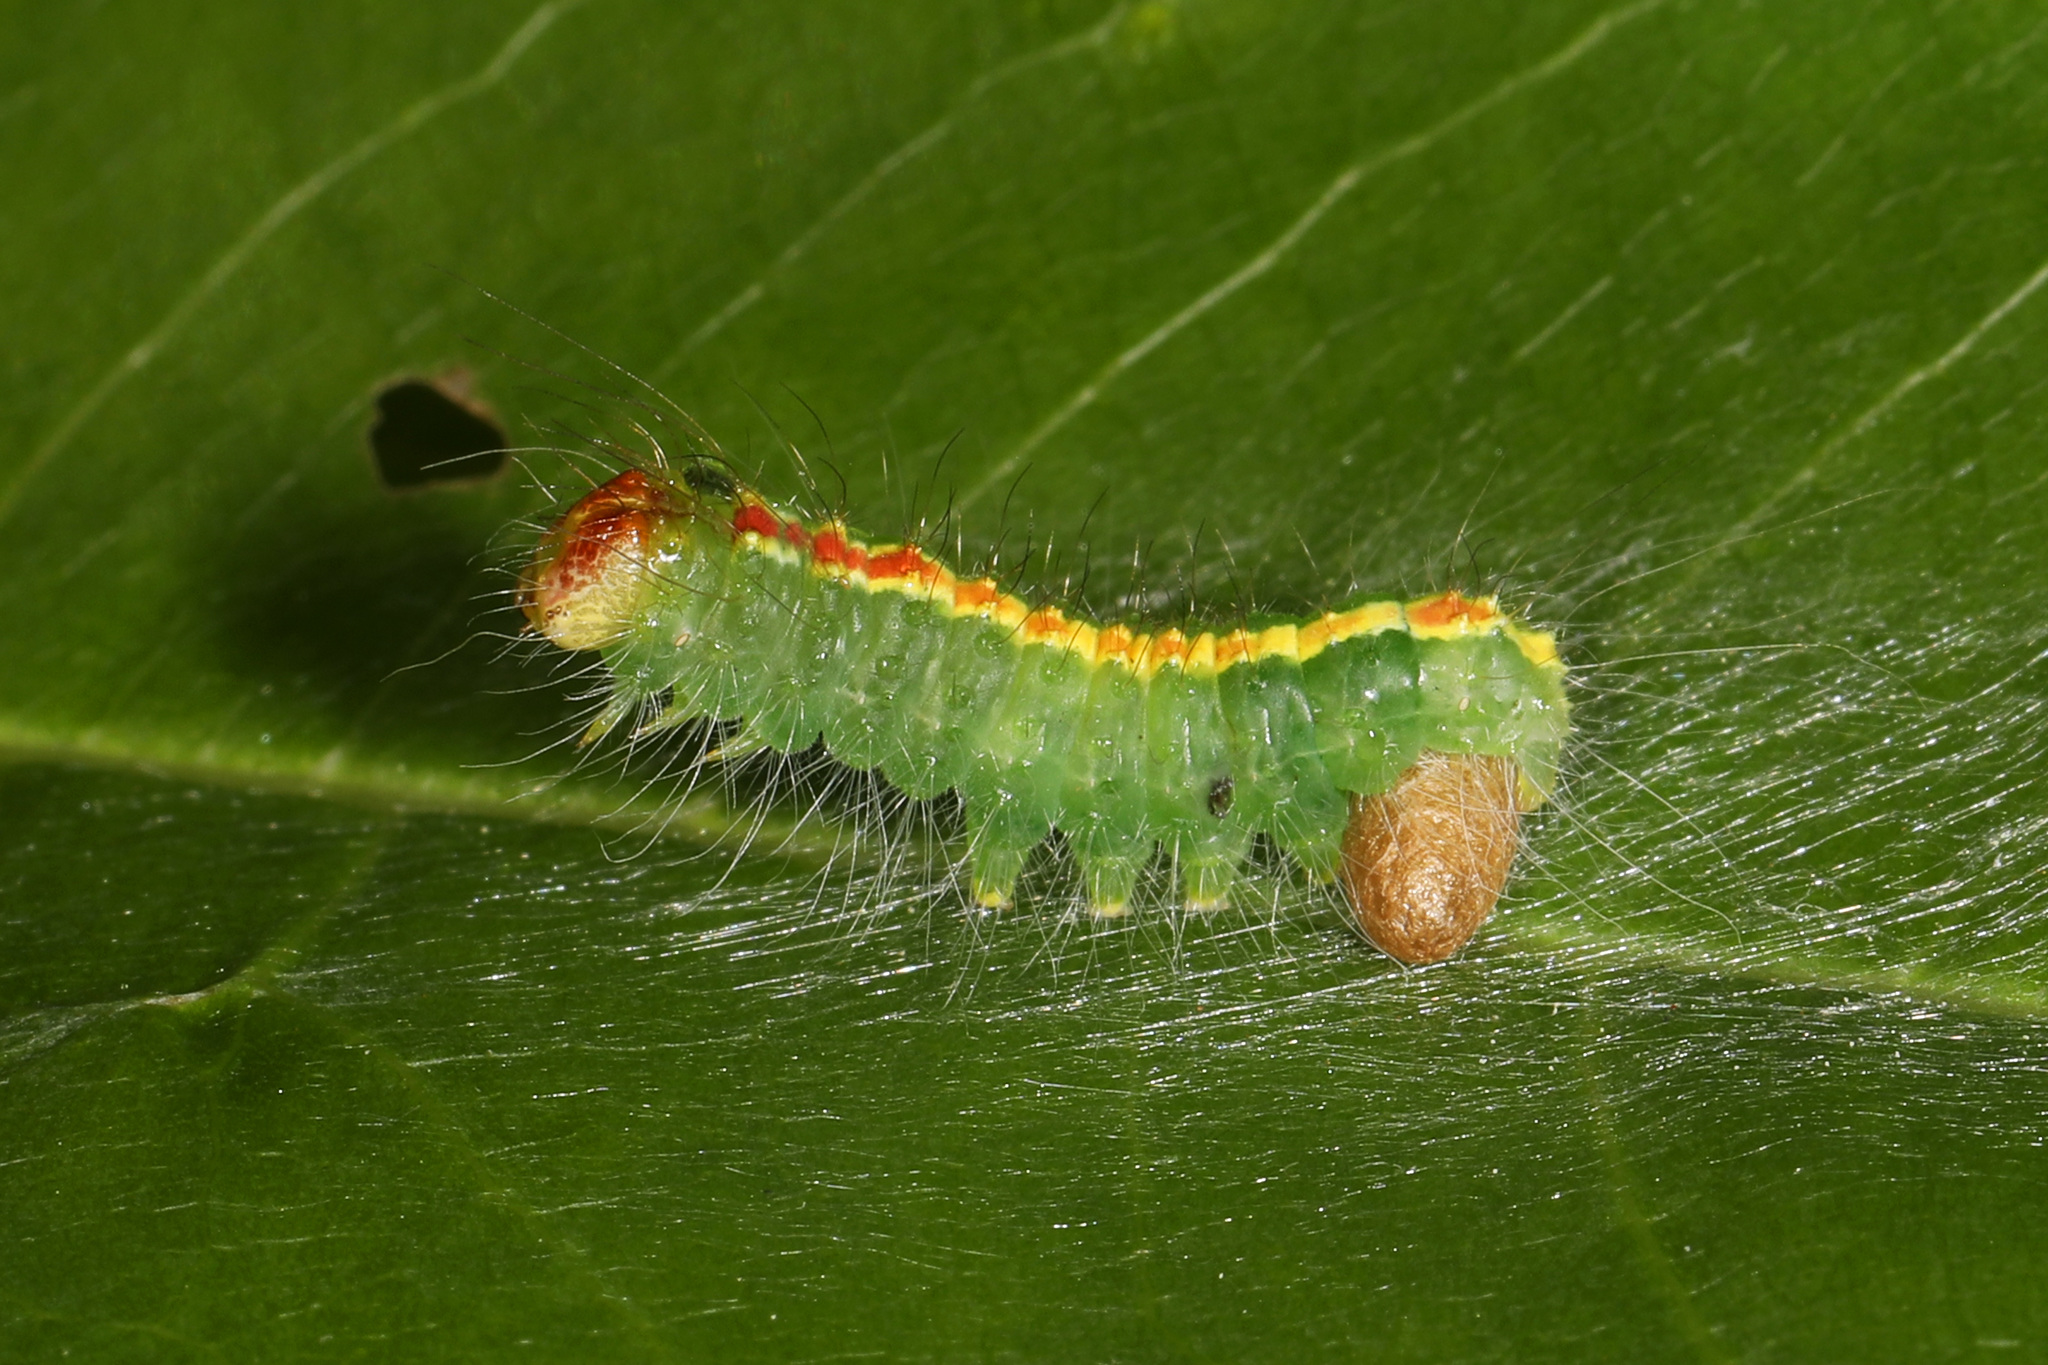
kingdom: Animalia
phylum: Arthropoda
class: Insecta
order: Lepidoptera
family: Noctuidae
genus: Acronicta
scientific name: Acronicta hasta
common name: Cherry dagger
